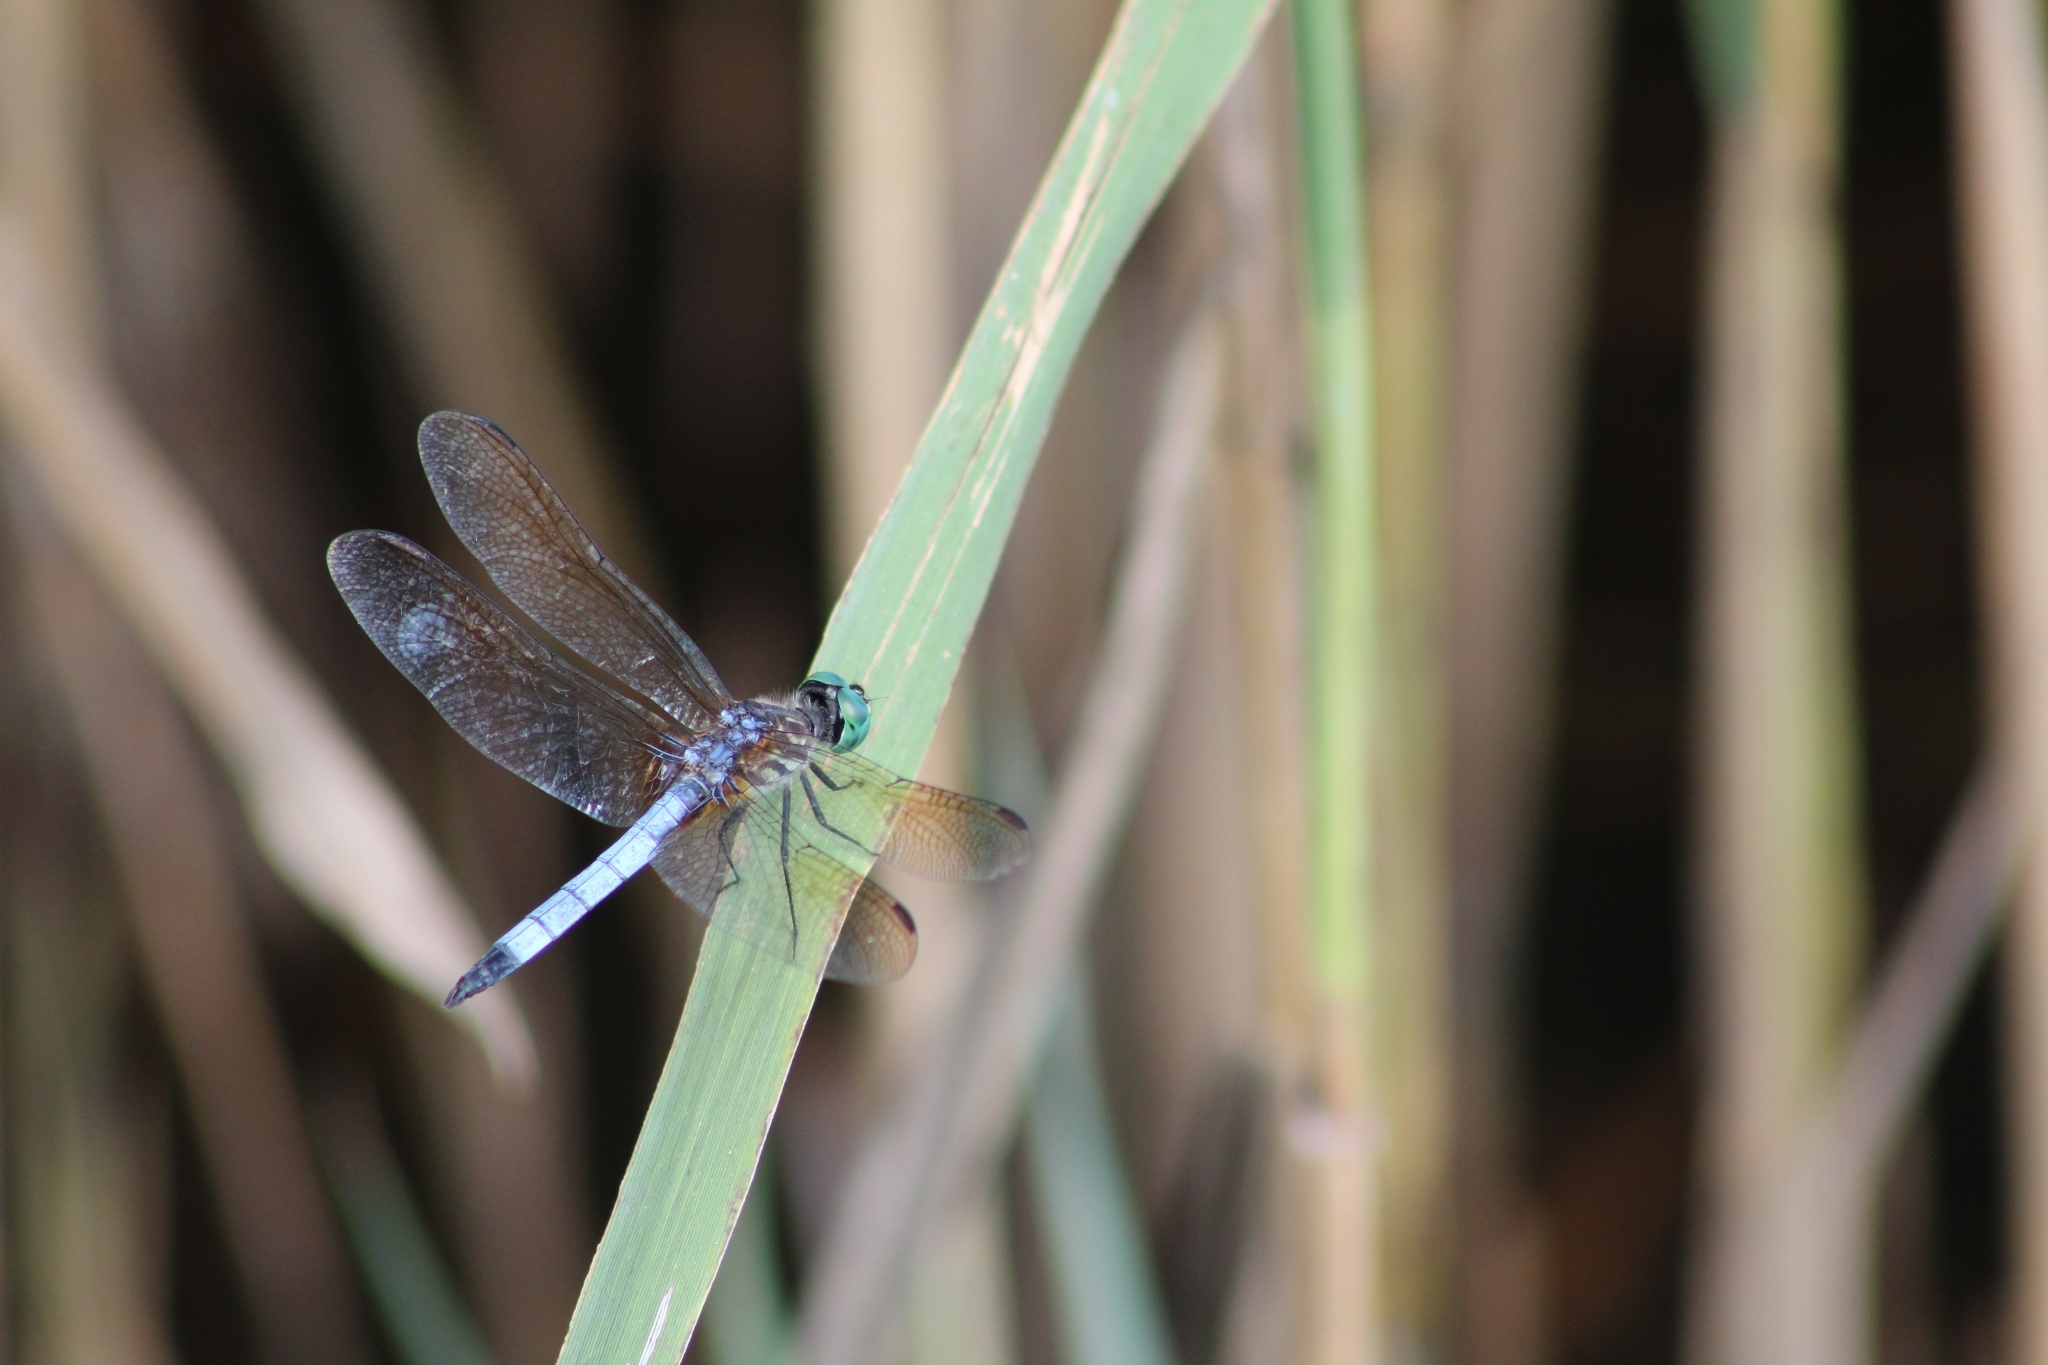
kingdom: Animalia
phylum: Arthropoda
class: Insecta
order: Odonata
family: Libellulidae
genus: Pachydiplax
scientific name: Pachydiplax longipennis
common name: Blue dasher
